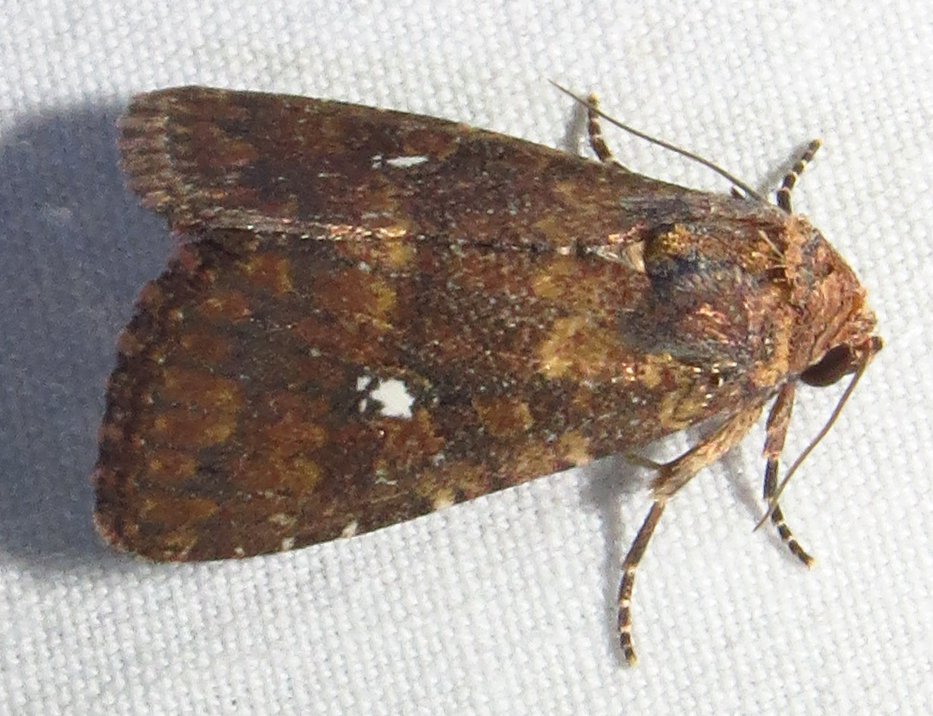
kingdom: Animalia
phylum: Arthropoda
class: Insecta
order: Lepidoptera
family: Noctuidae
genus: Condica
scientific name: Condica mobilis
